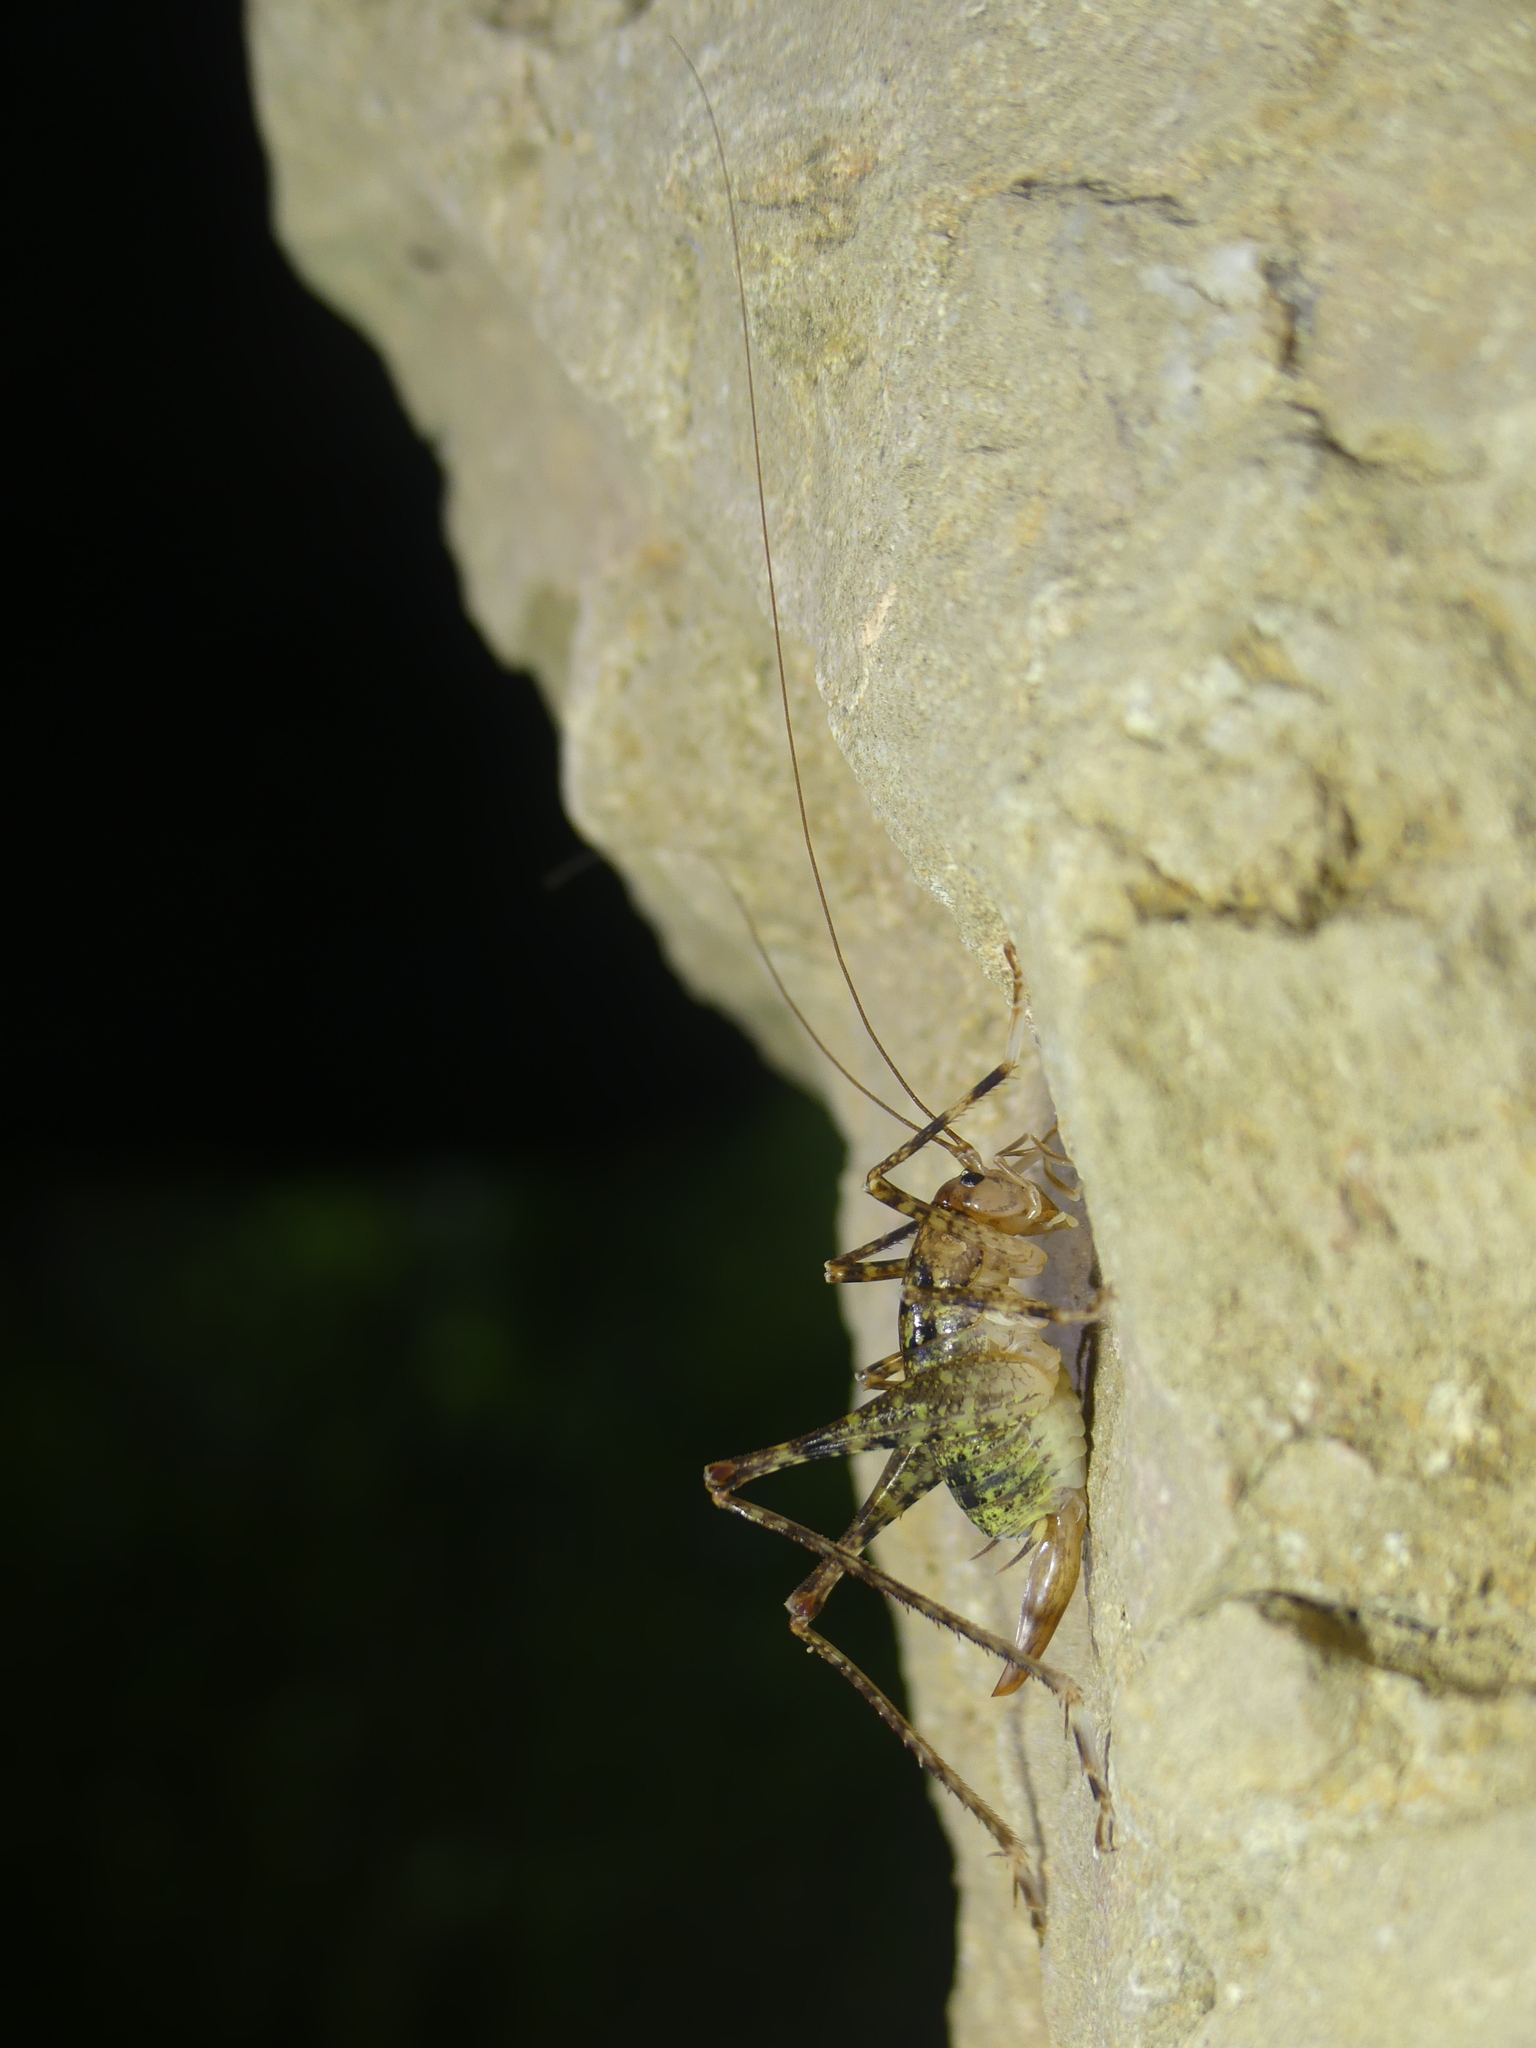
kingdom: Animalia
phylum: Arthropoda
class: Insecta
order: Orthoptera
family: Rhaphidophoridae
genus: Troglophilus
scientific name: Troglophilus neglectus
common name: Neglected cave-cricket
